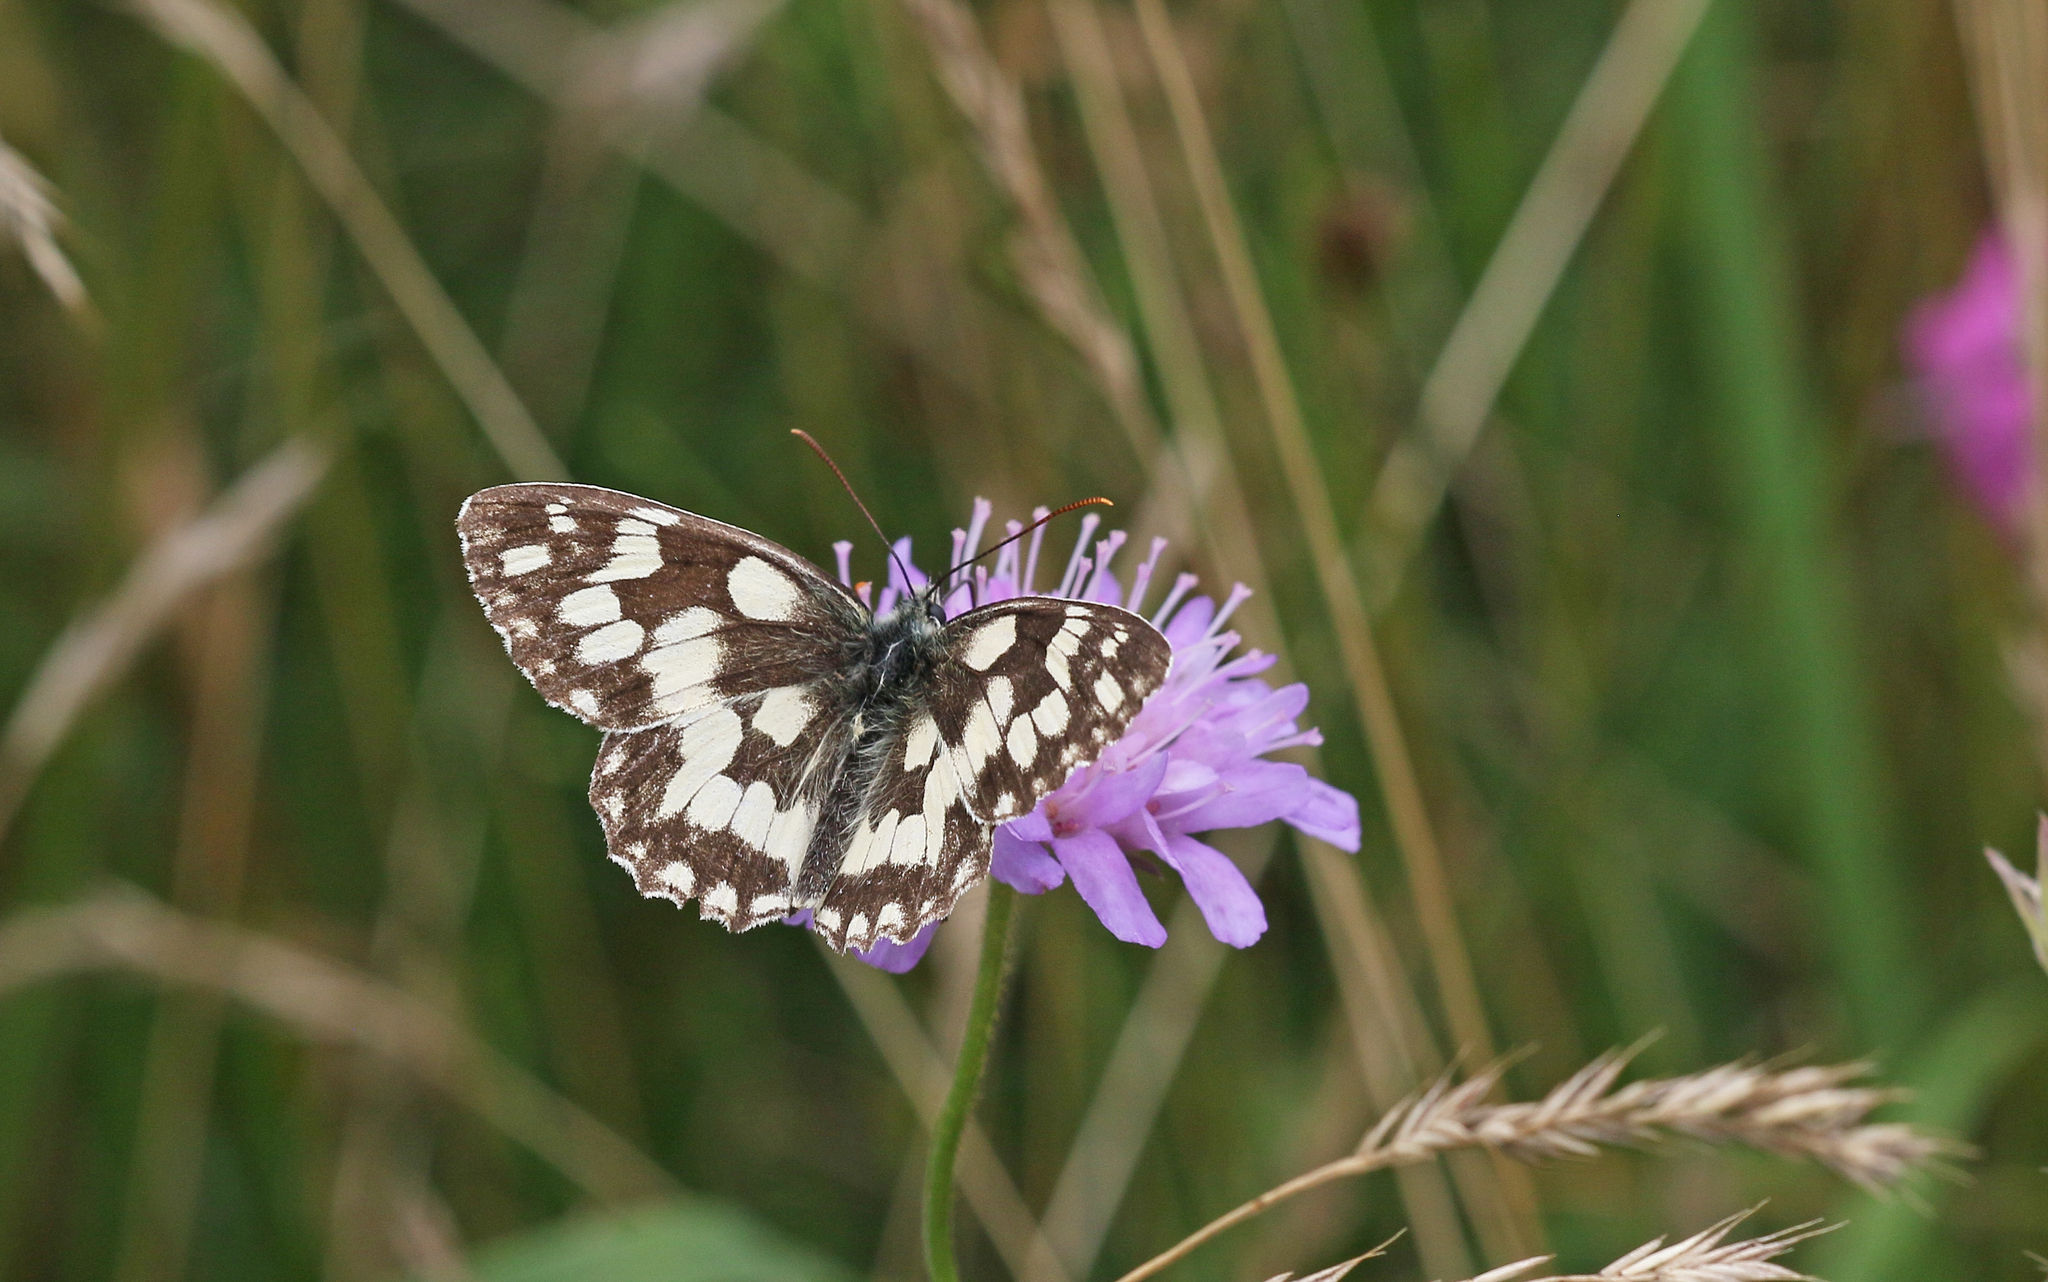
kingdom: Animalia
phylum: Arthropoda
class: Insecta
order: Lepidoptera
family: Nymphalidae
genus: Melanargia
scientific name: Melanargia galathea
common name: Marbled white
